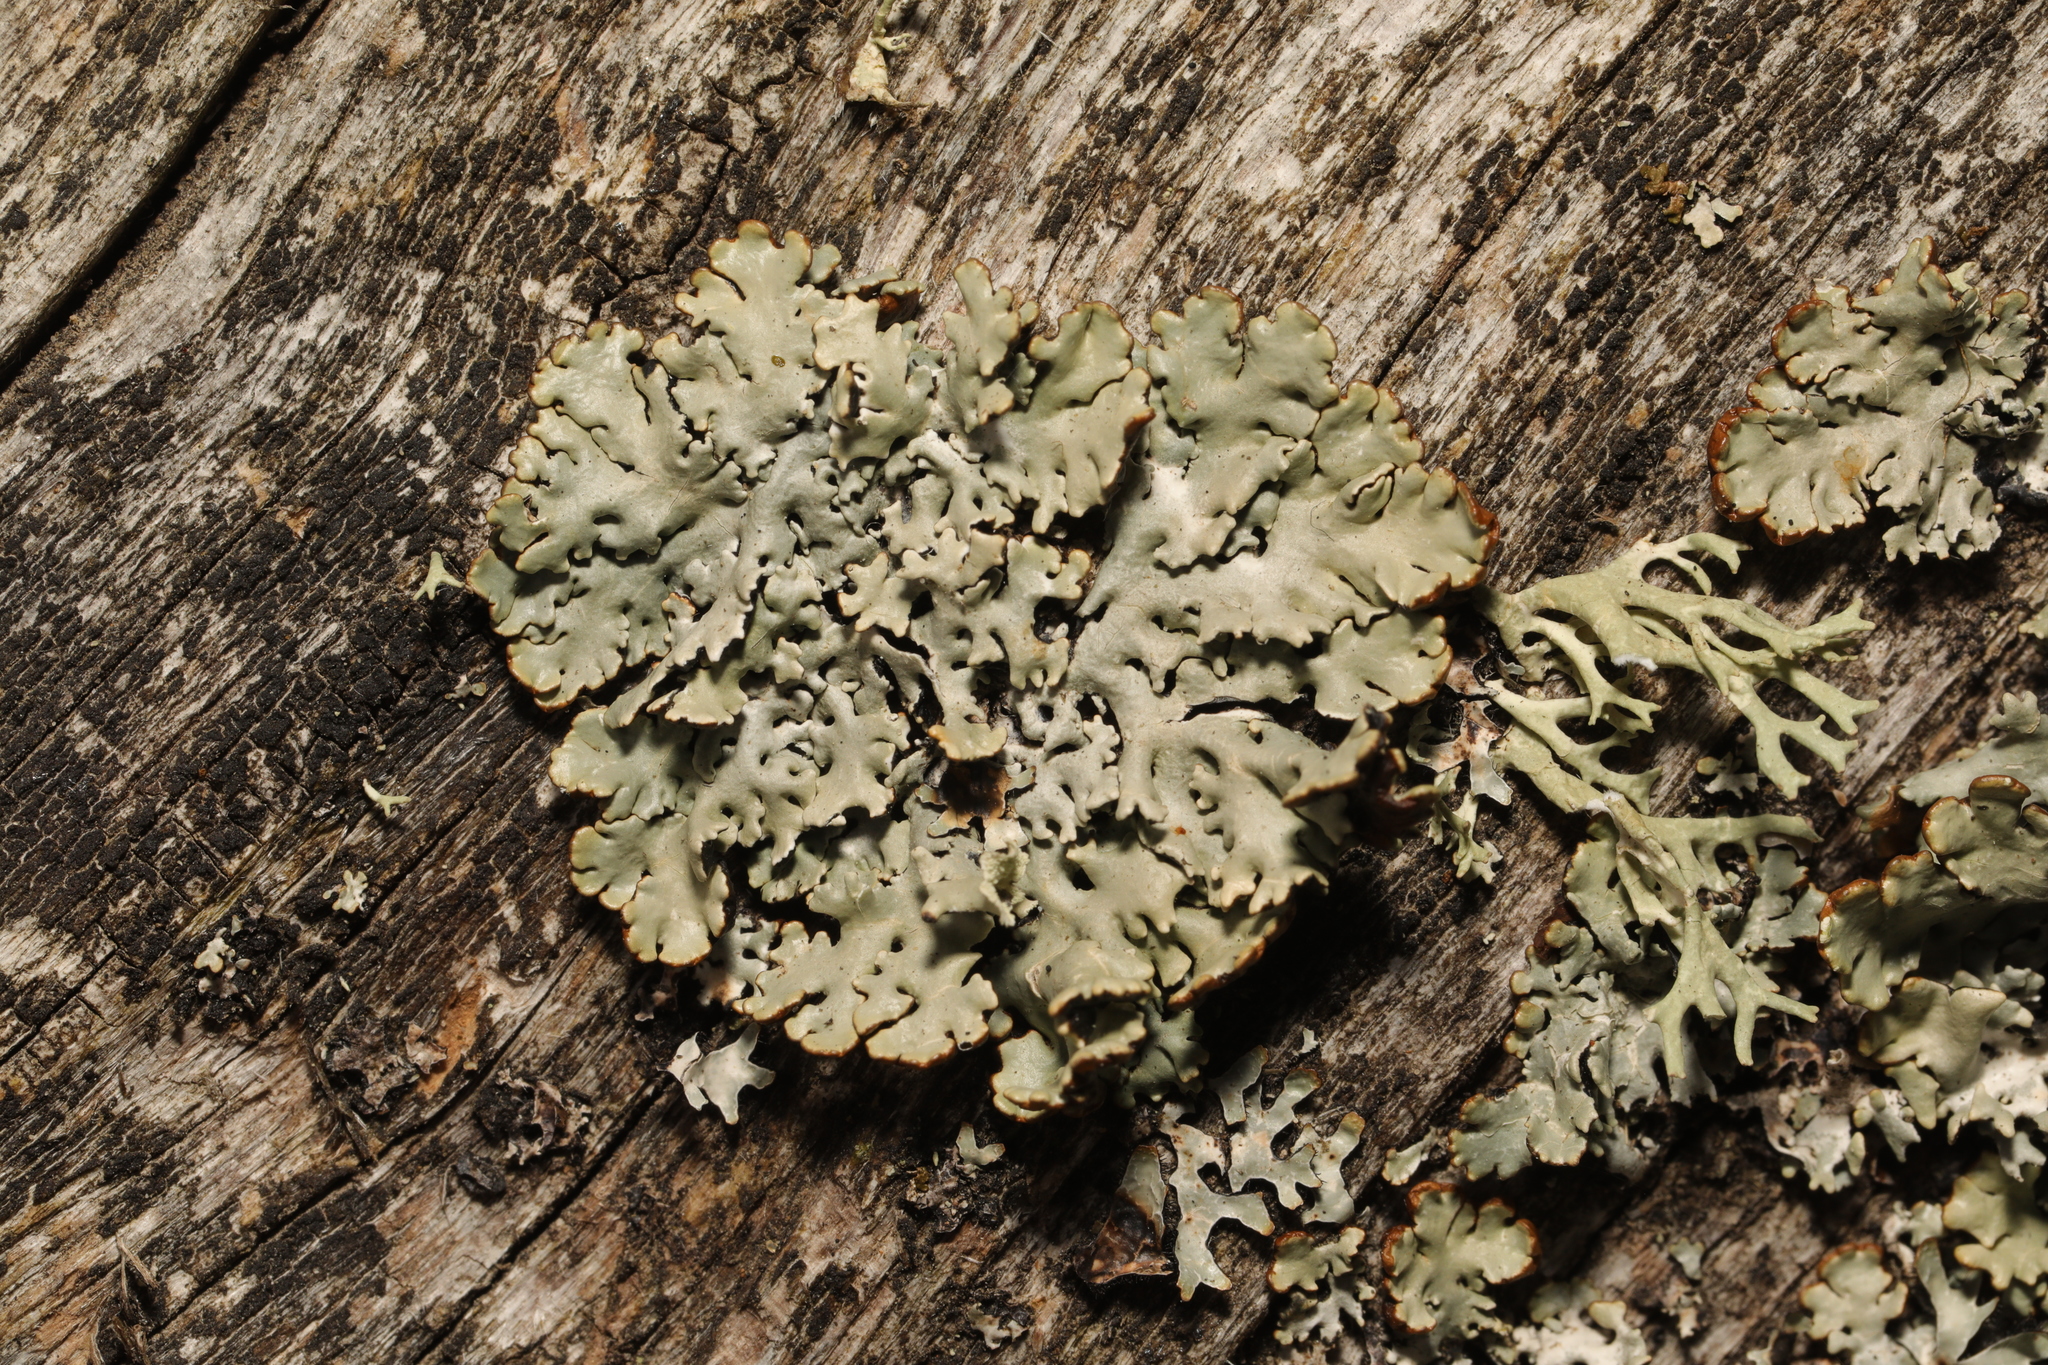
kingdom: Fungi
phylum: Ascomycota
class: Lecanoromycetes
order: Lecanorales
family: Parmeliaceae
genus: Hypogymnia
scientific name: Hypogymnia physodes
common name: Dark crottle
